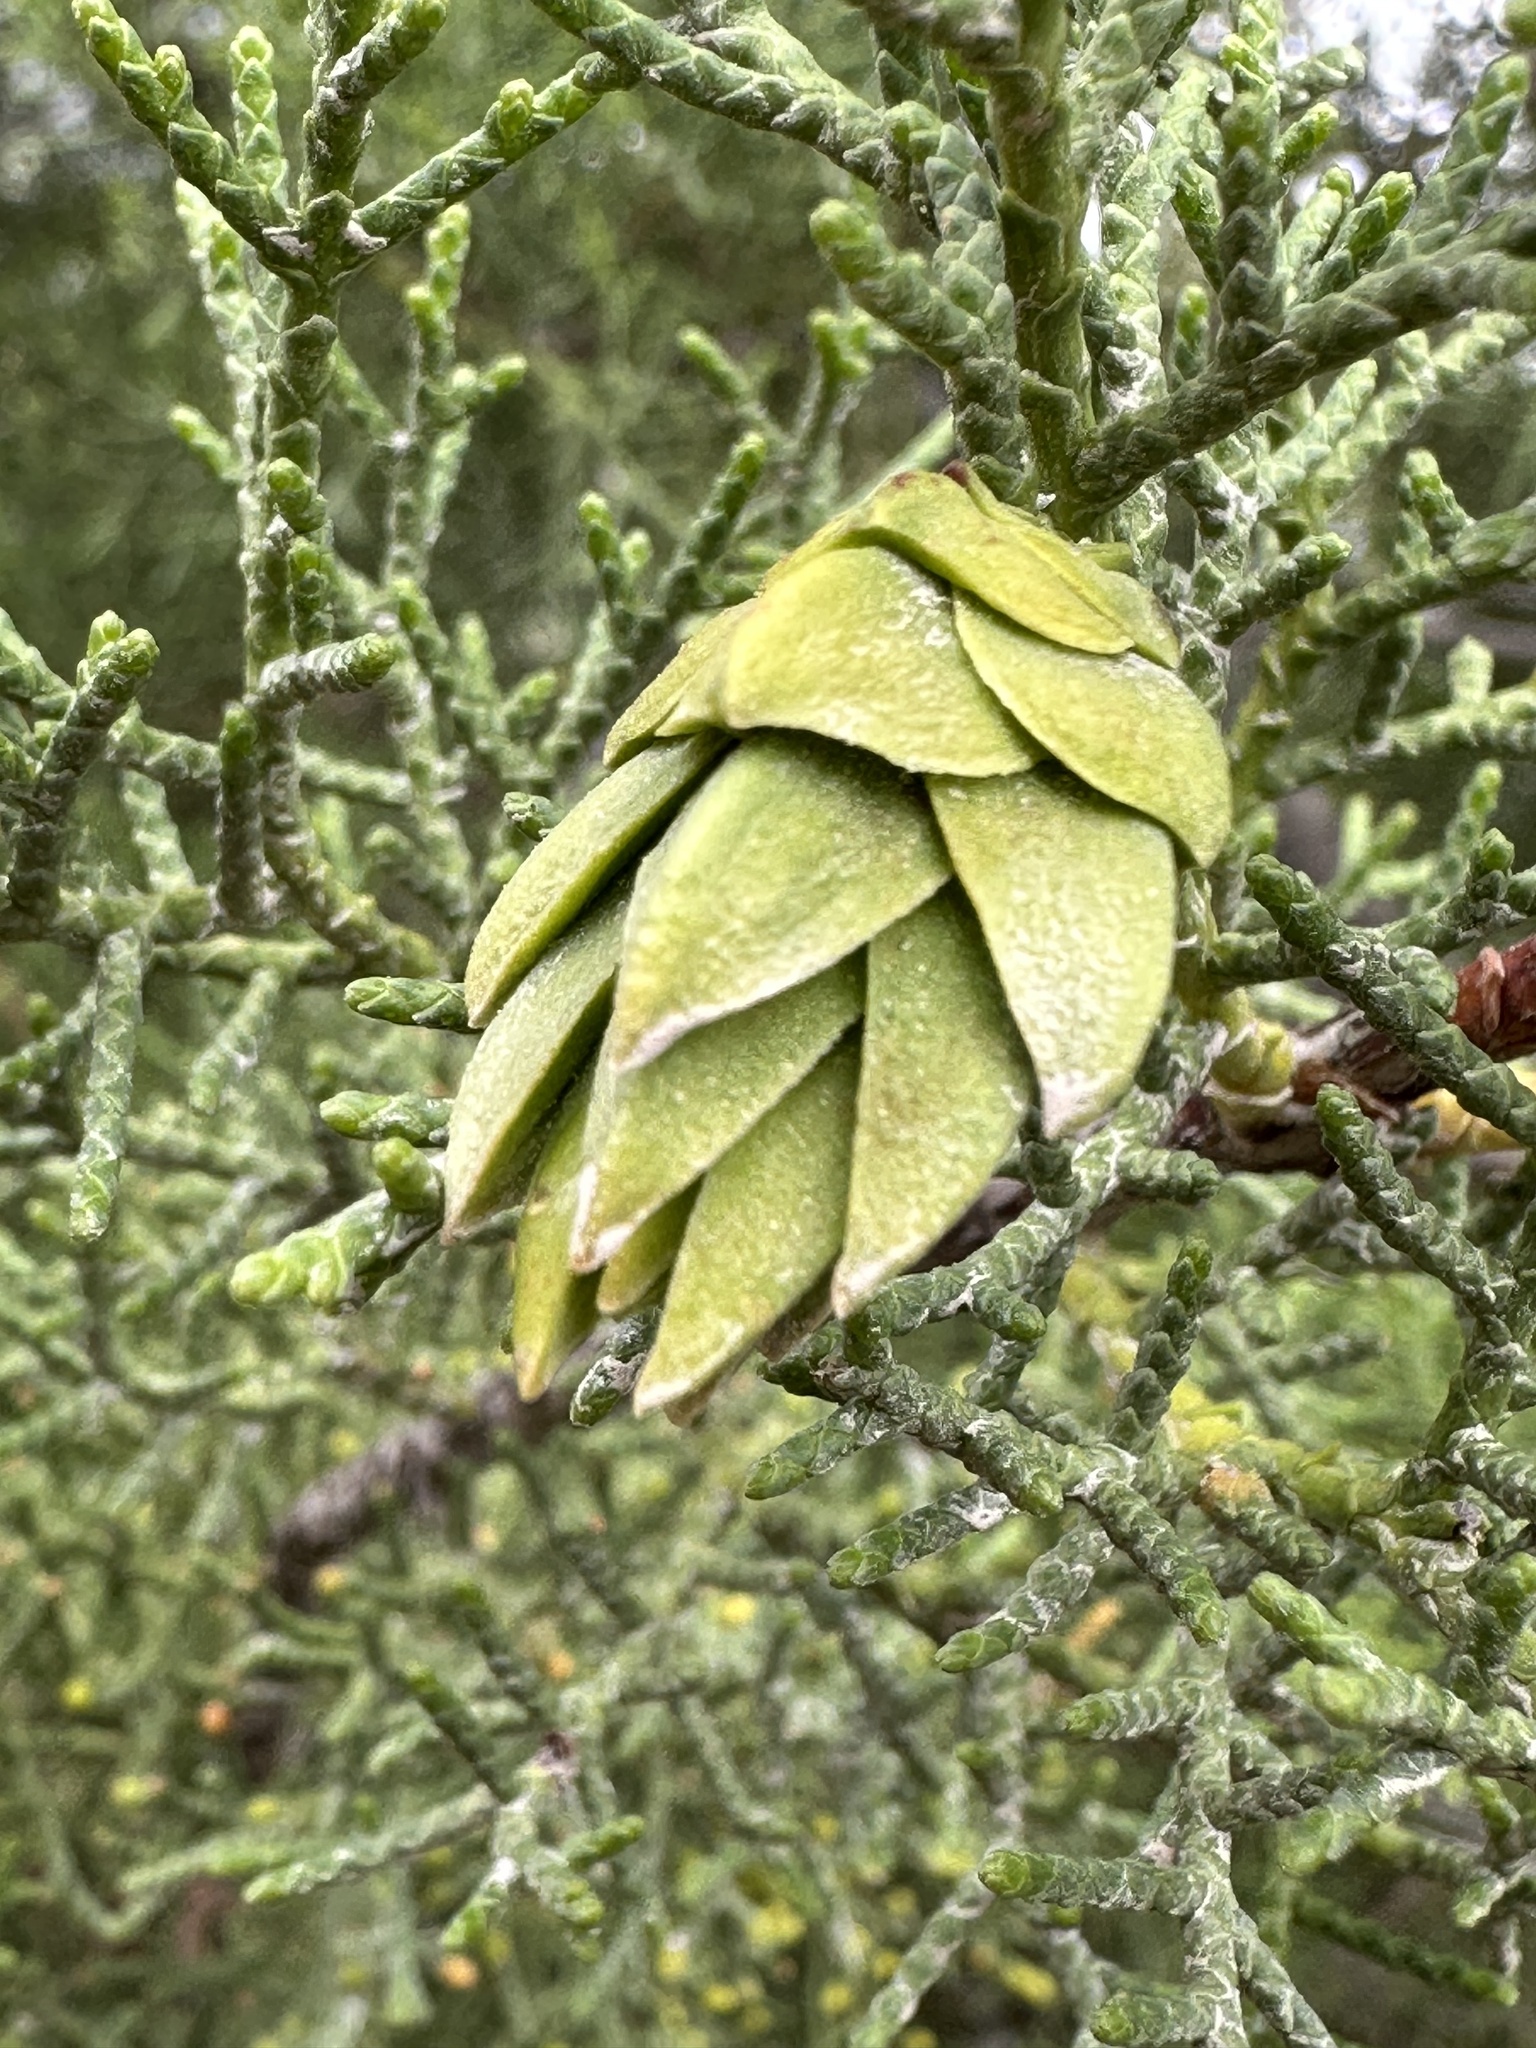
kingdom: Animalia
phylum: Arthropoda
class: Insecta
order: Diptera
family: Cecidomyiidae
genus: Oligotrophus
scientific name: Oligotrophus cupressi
